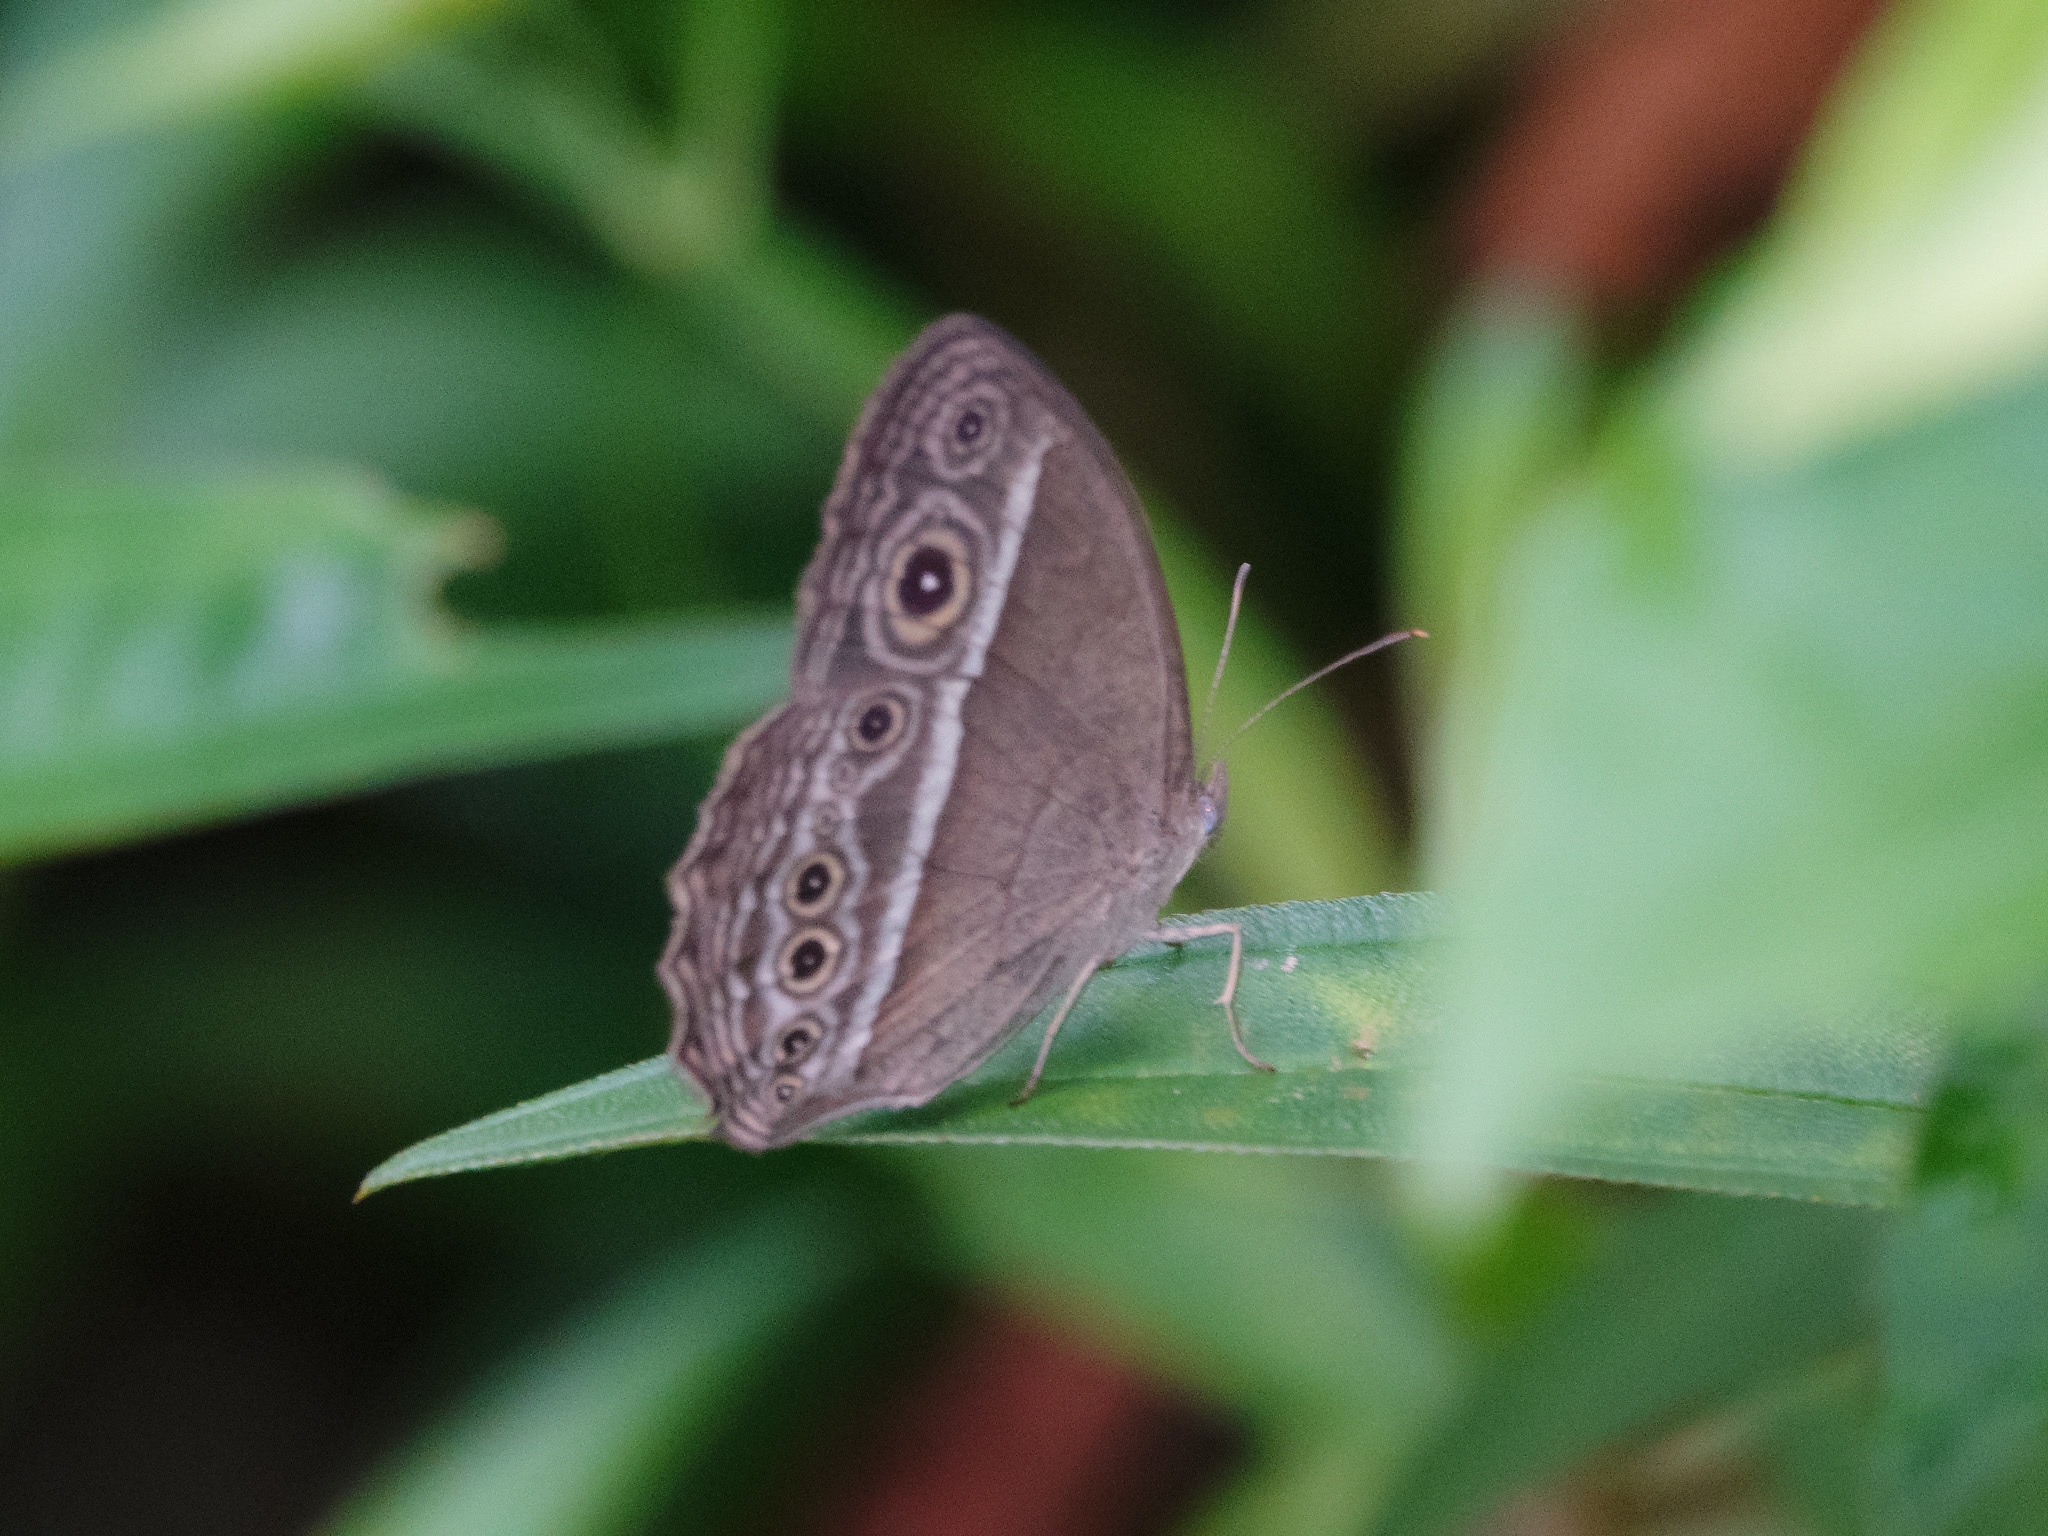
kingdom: Animalia
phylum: Arthropoda
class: Insecta
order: Lepidoptera
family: Nymphalidae
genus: Mycalesis
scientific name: Mycalesis visala
